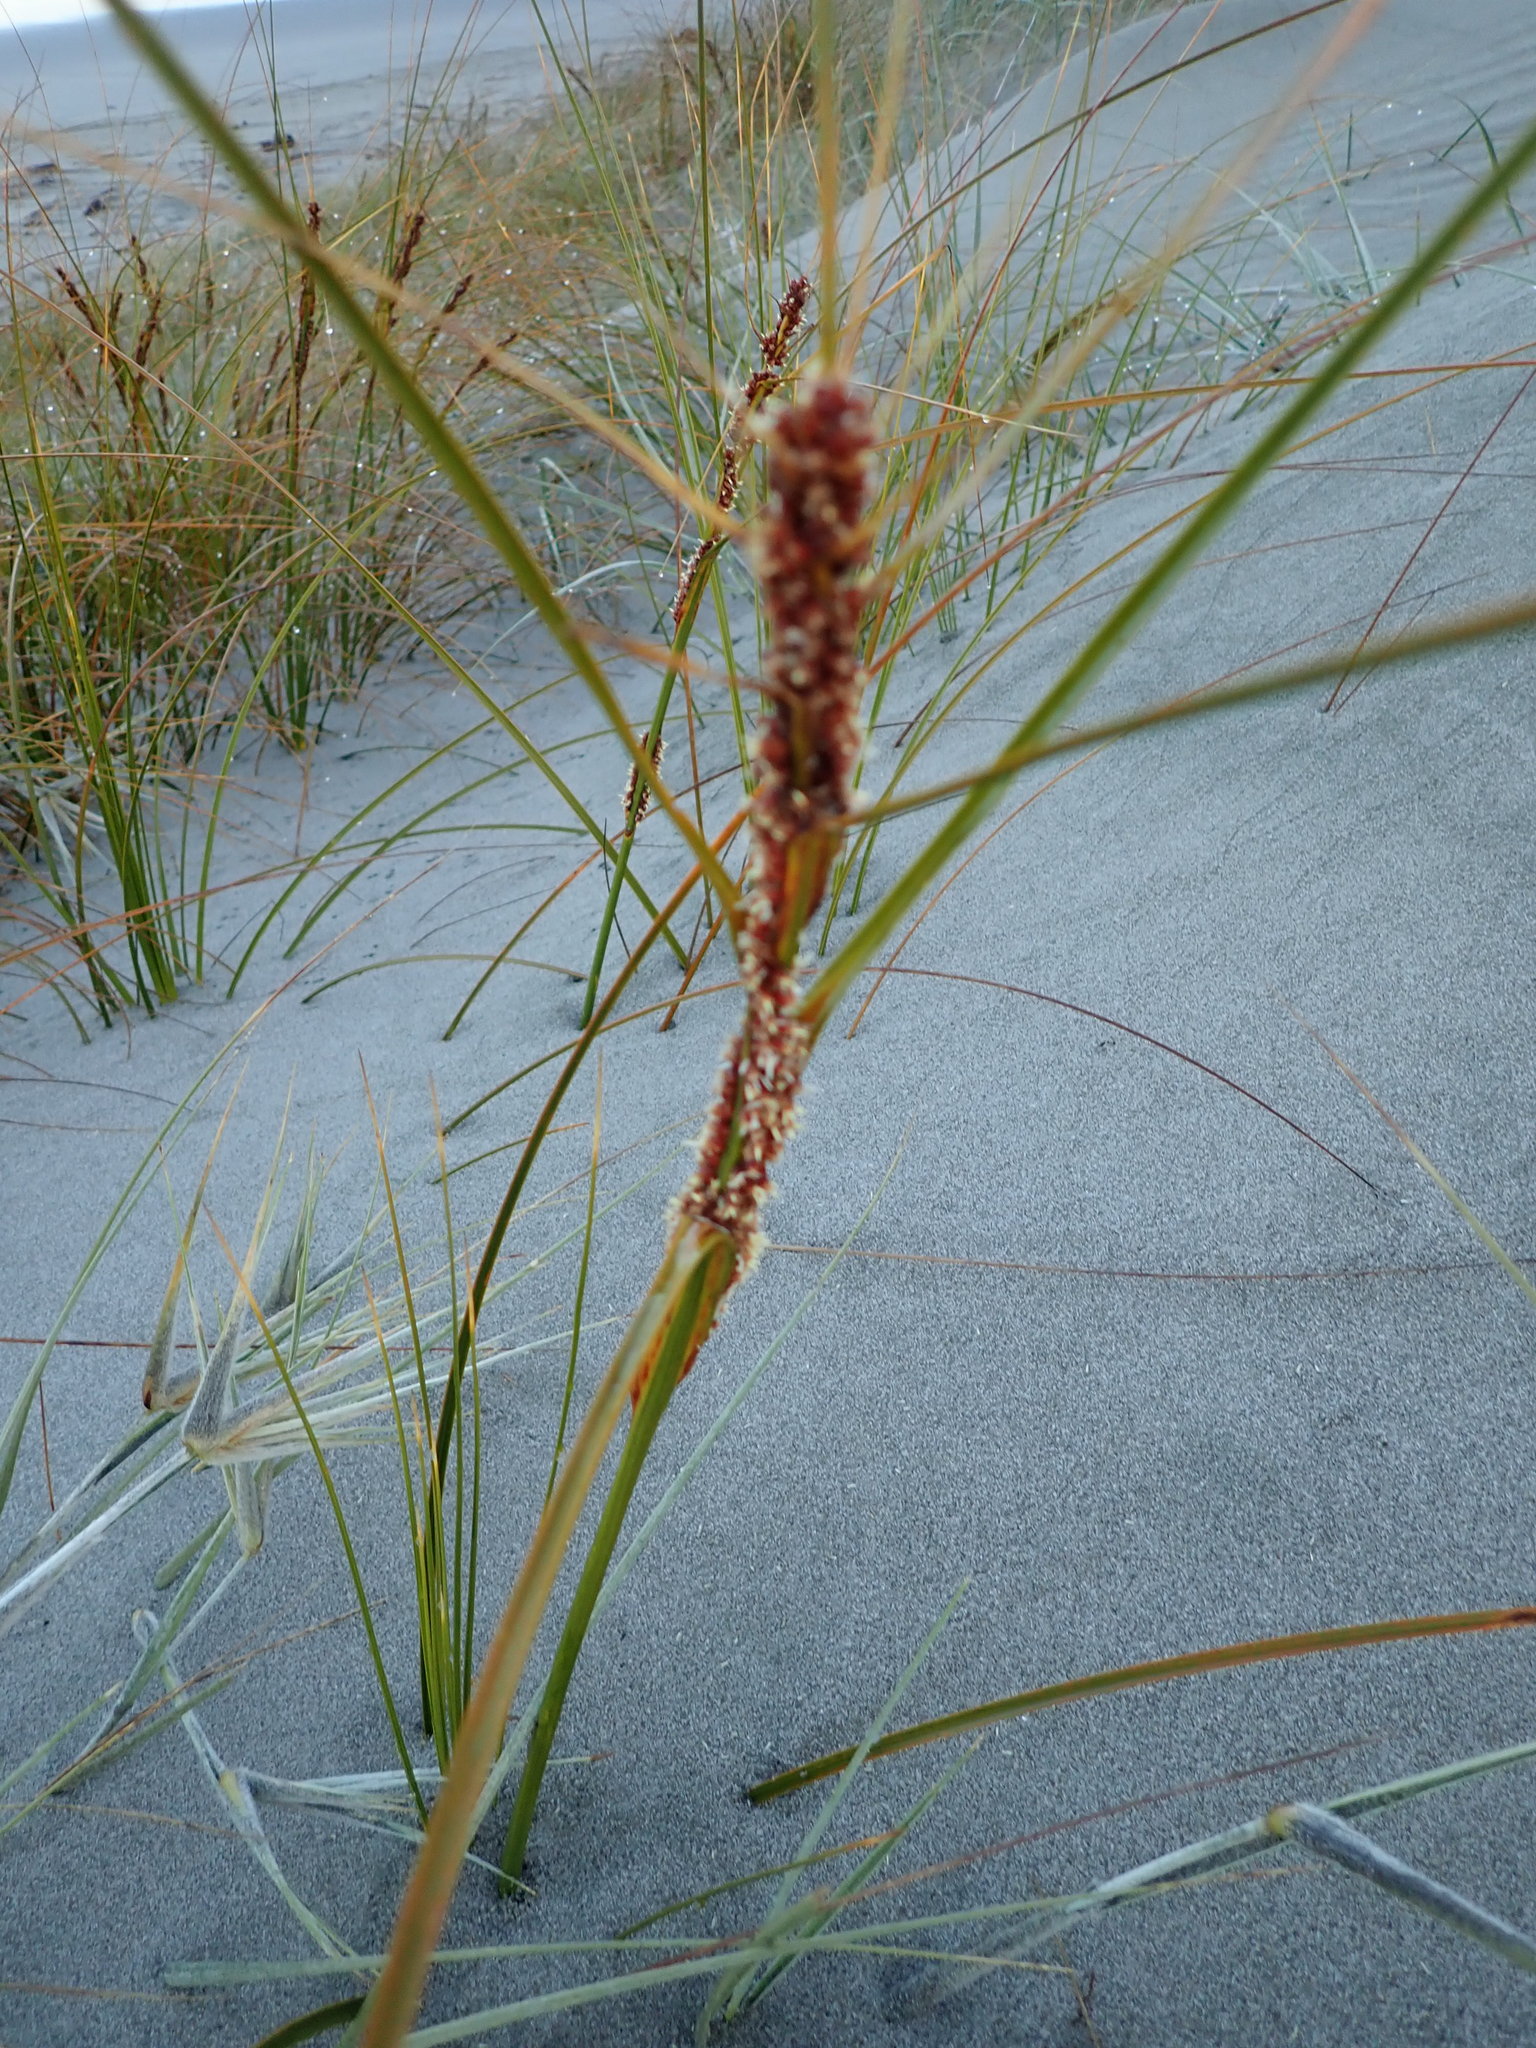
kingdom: Plantae
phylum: Tracheophyta
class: Liliopsida
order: Poales
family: Cyperaceae
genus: Ficinia
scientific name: Ficinia spiralis
